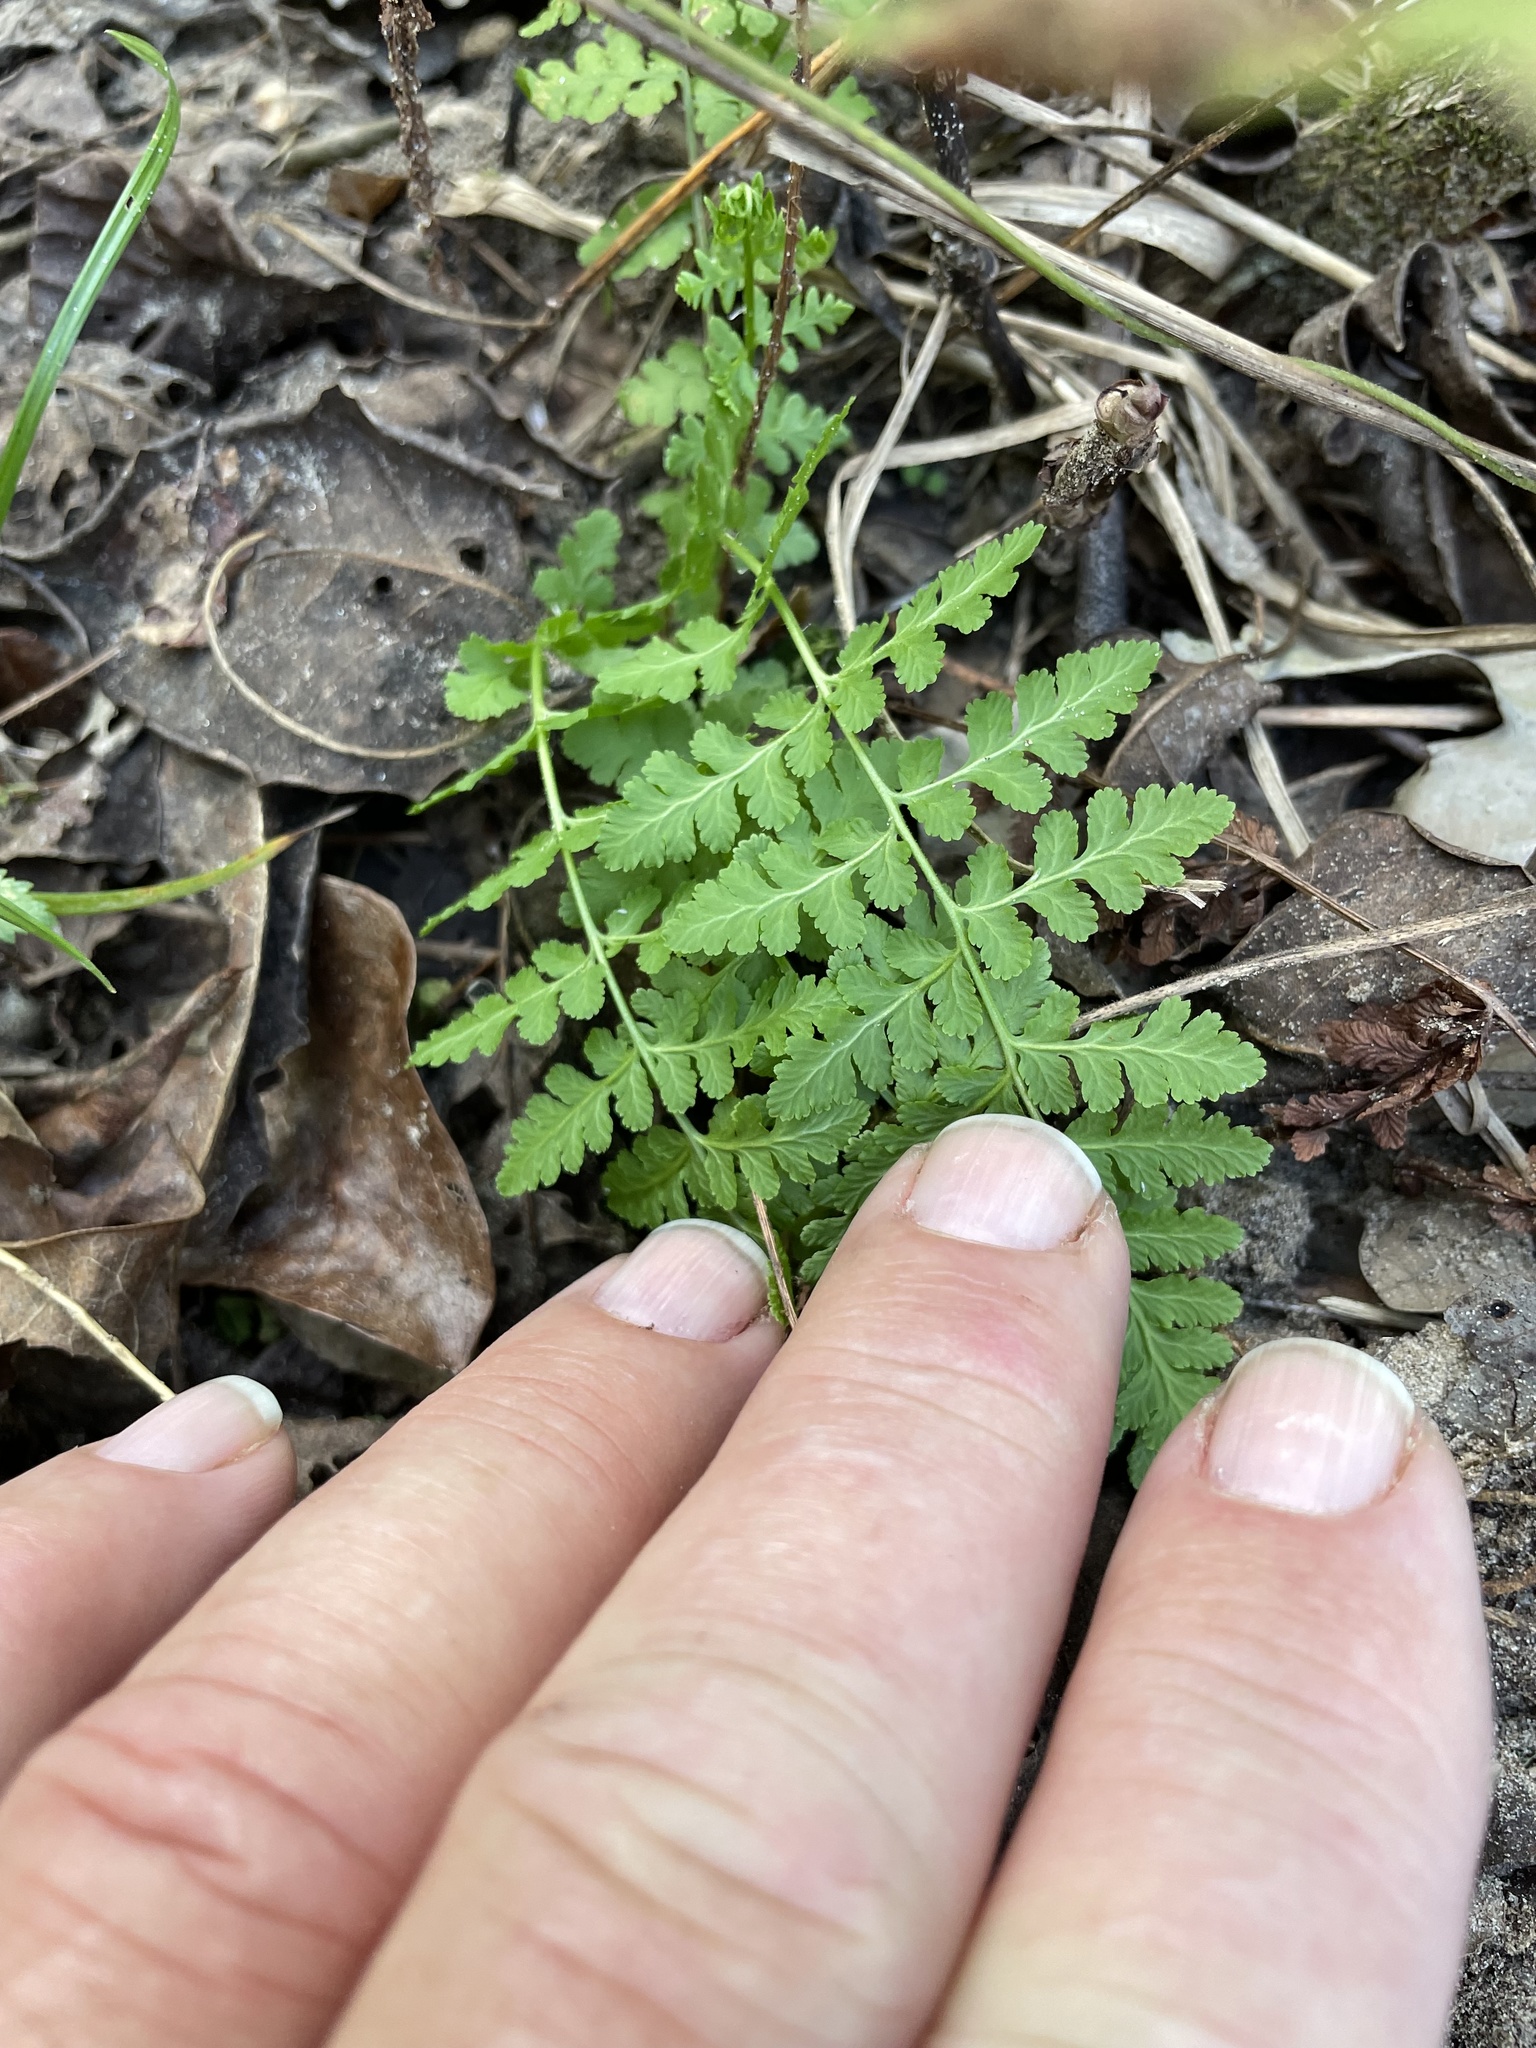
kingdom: Plantae
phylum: Tracheophyta
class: Polypodiopsida
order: Polypodiales
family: Woodsiaceae
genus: Physematium
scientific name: Physematium obtusum
